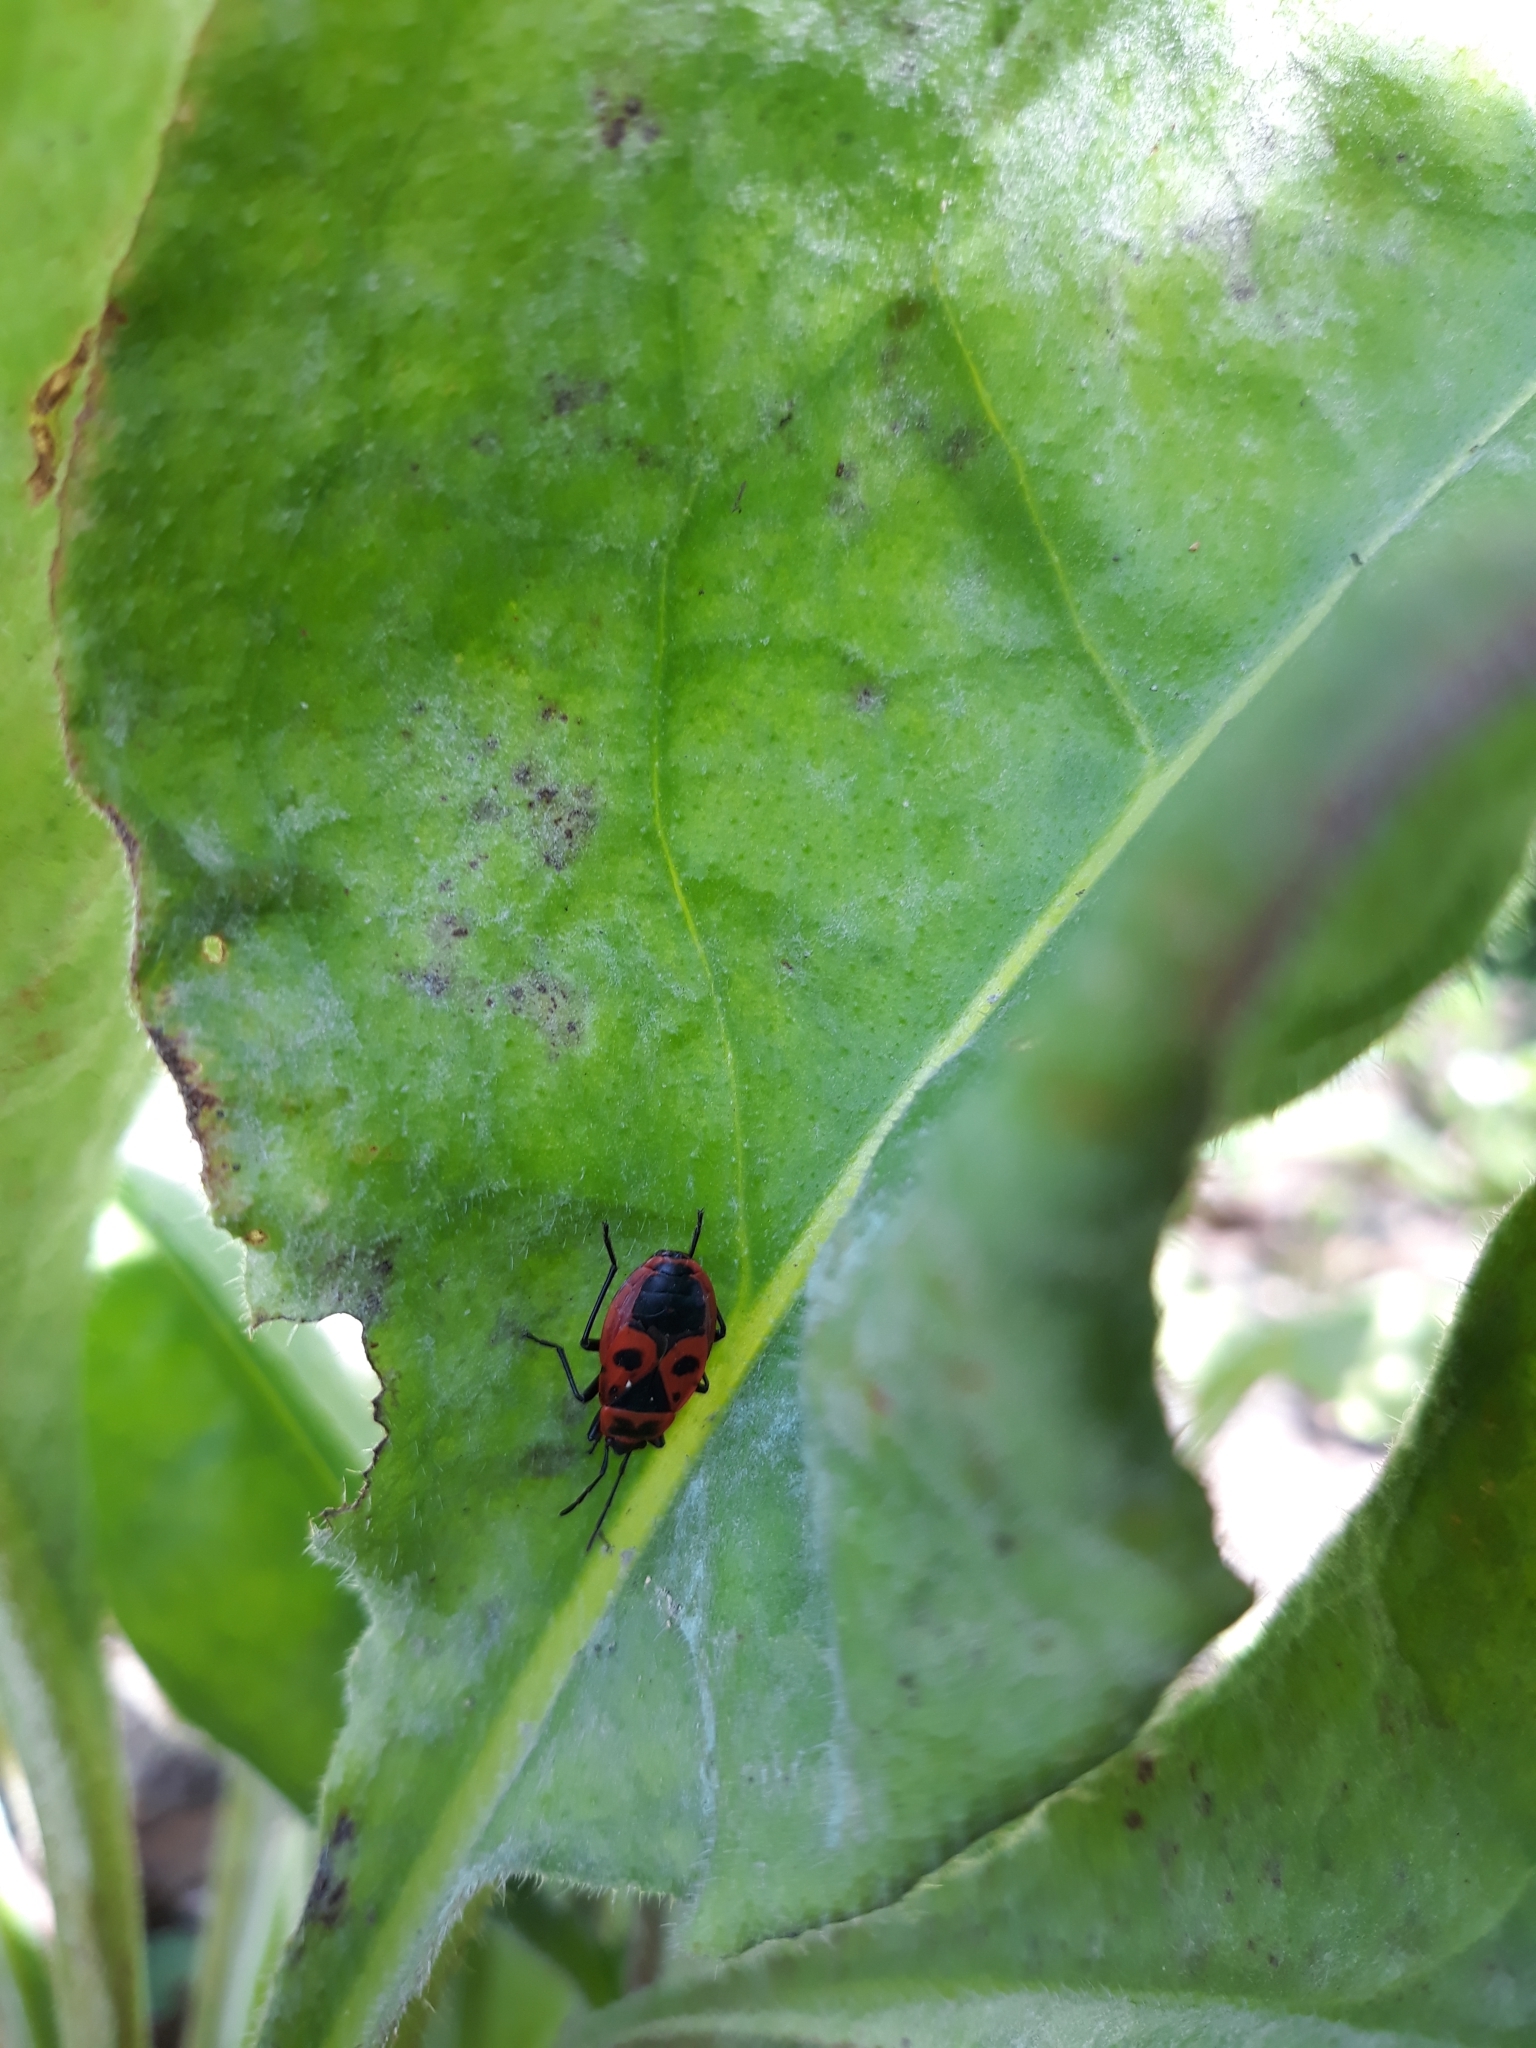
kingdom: Animalia
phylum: Arthropoda
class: Insecta
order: Hemiptera
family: Pyrrhocoridae
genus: Pyrrhocoris
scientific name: Pyrrhocoris apterus
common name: Firebug
